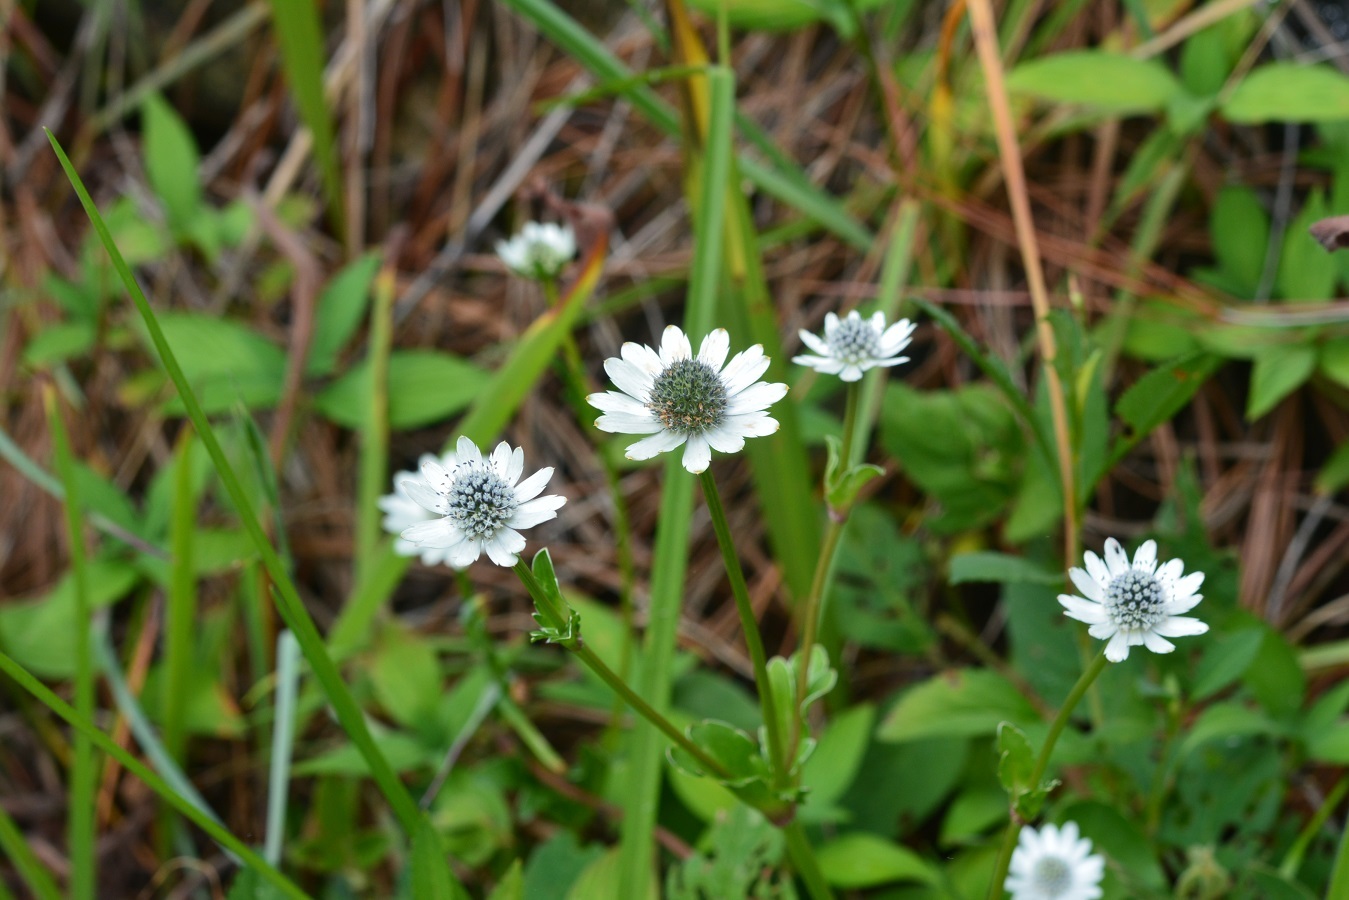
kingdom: Plantae
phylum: Tracheophyta
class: Magnoliopsida
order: Apiales
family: Apiaceae
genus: Eryngium
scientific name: Eryngium scaposum
